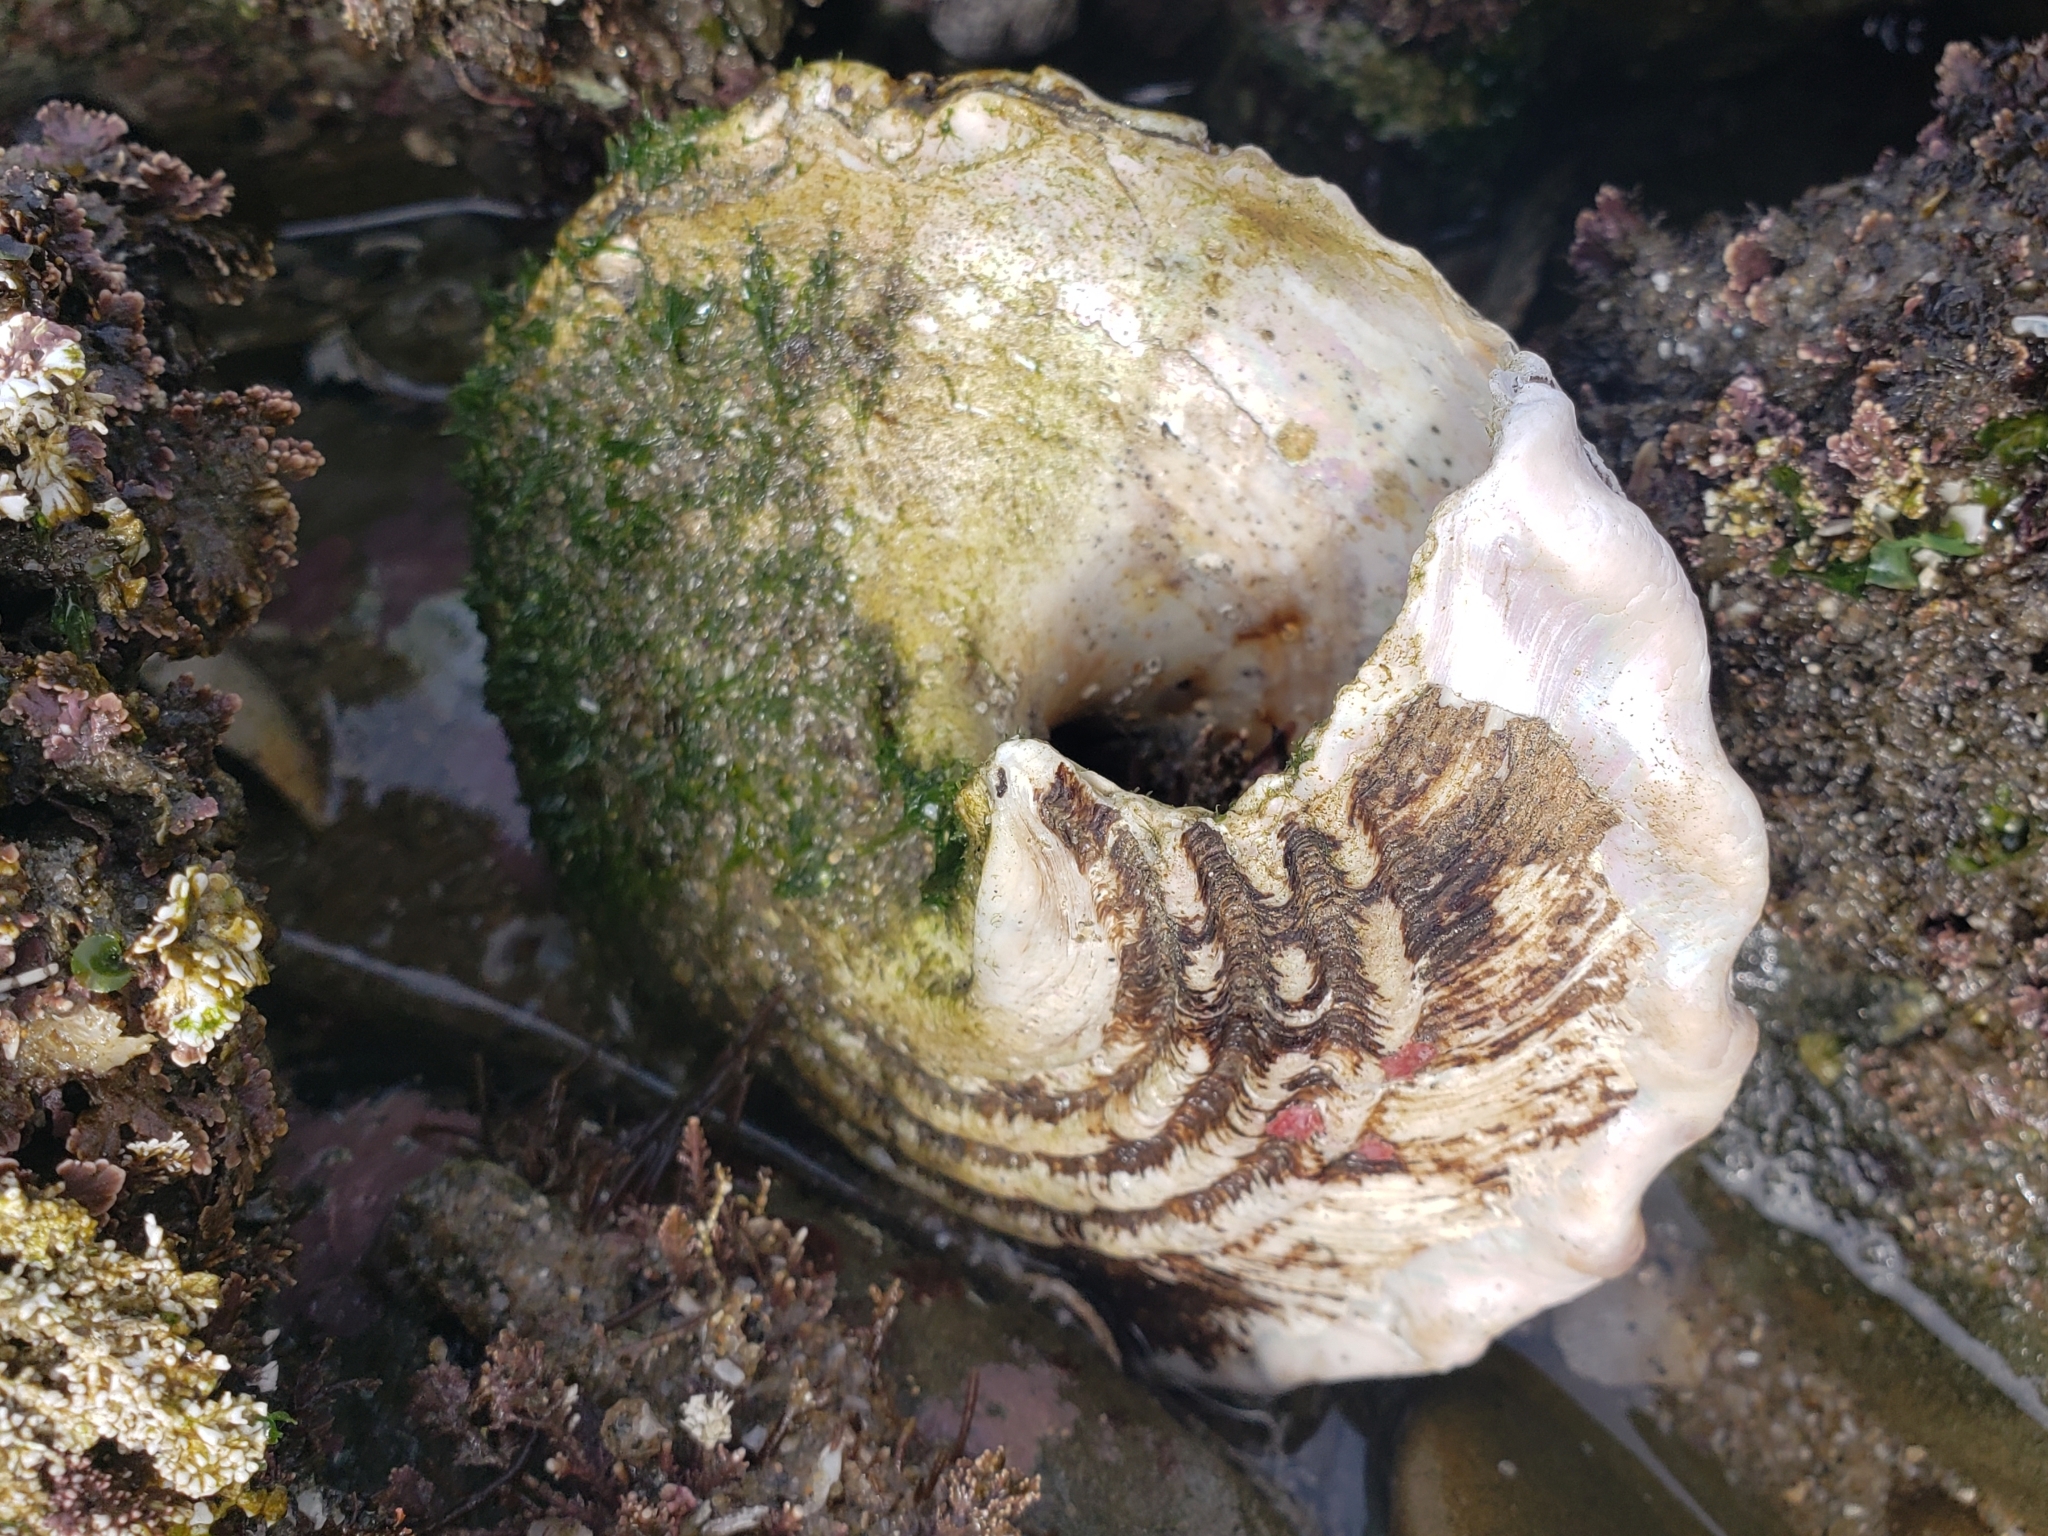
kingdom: Animalia
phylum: Mollusca
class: Gastropoda
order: Trochida
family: Turbinidae
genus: Megastraea
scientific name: Megastraea undosa
